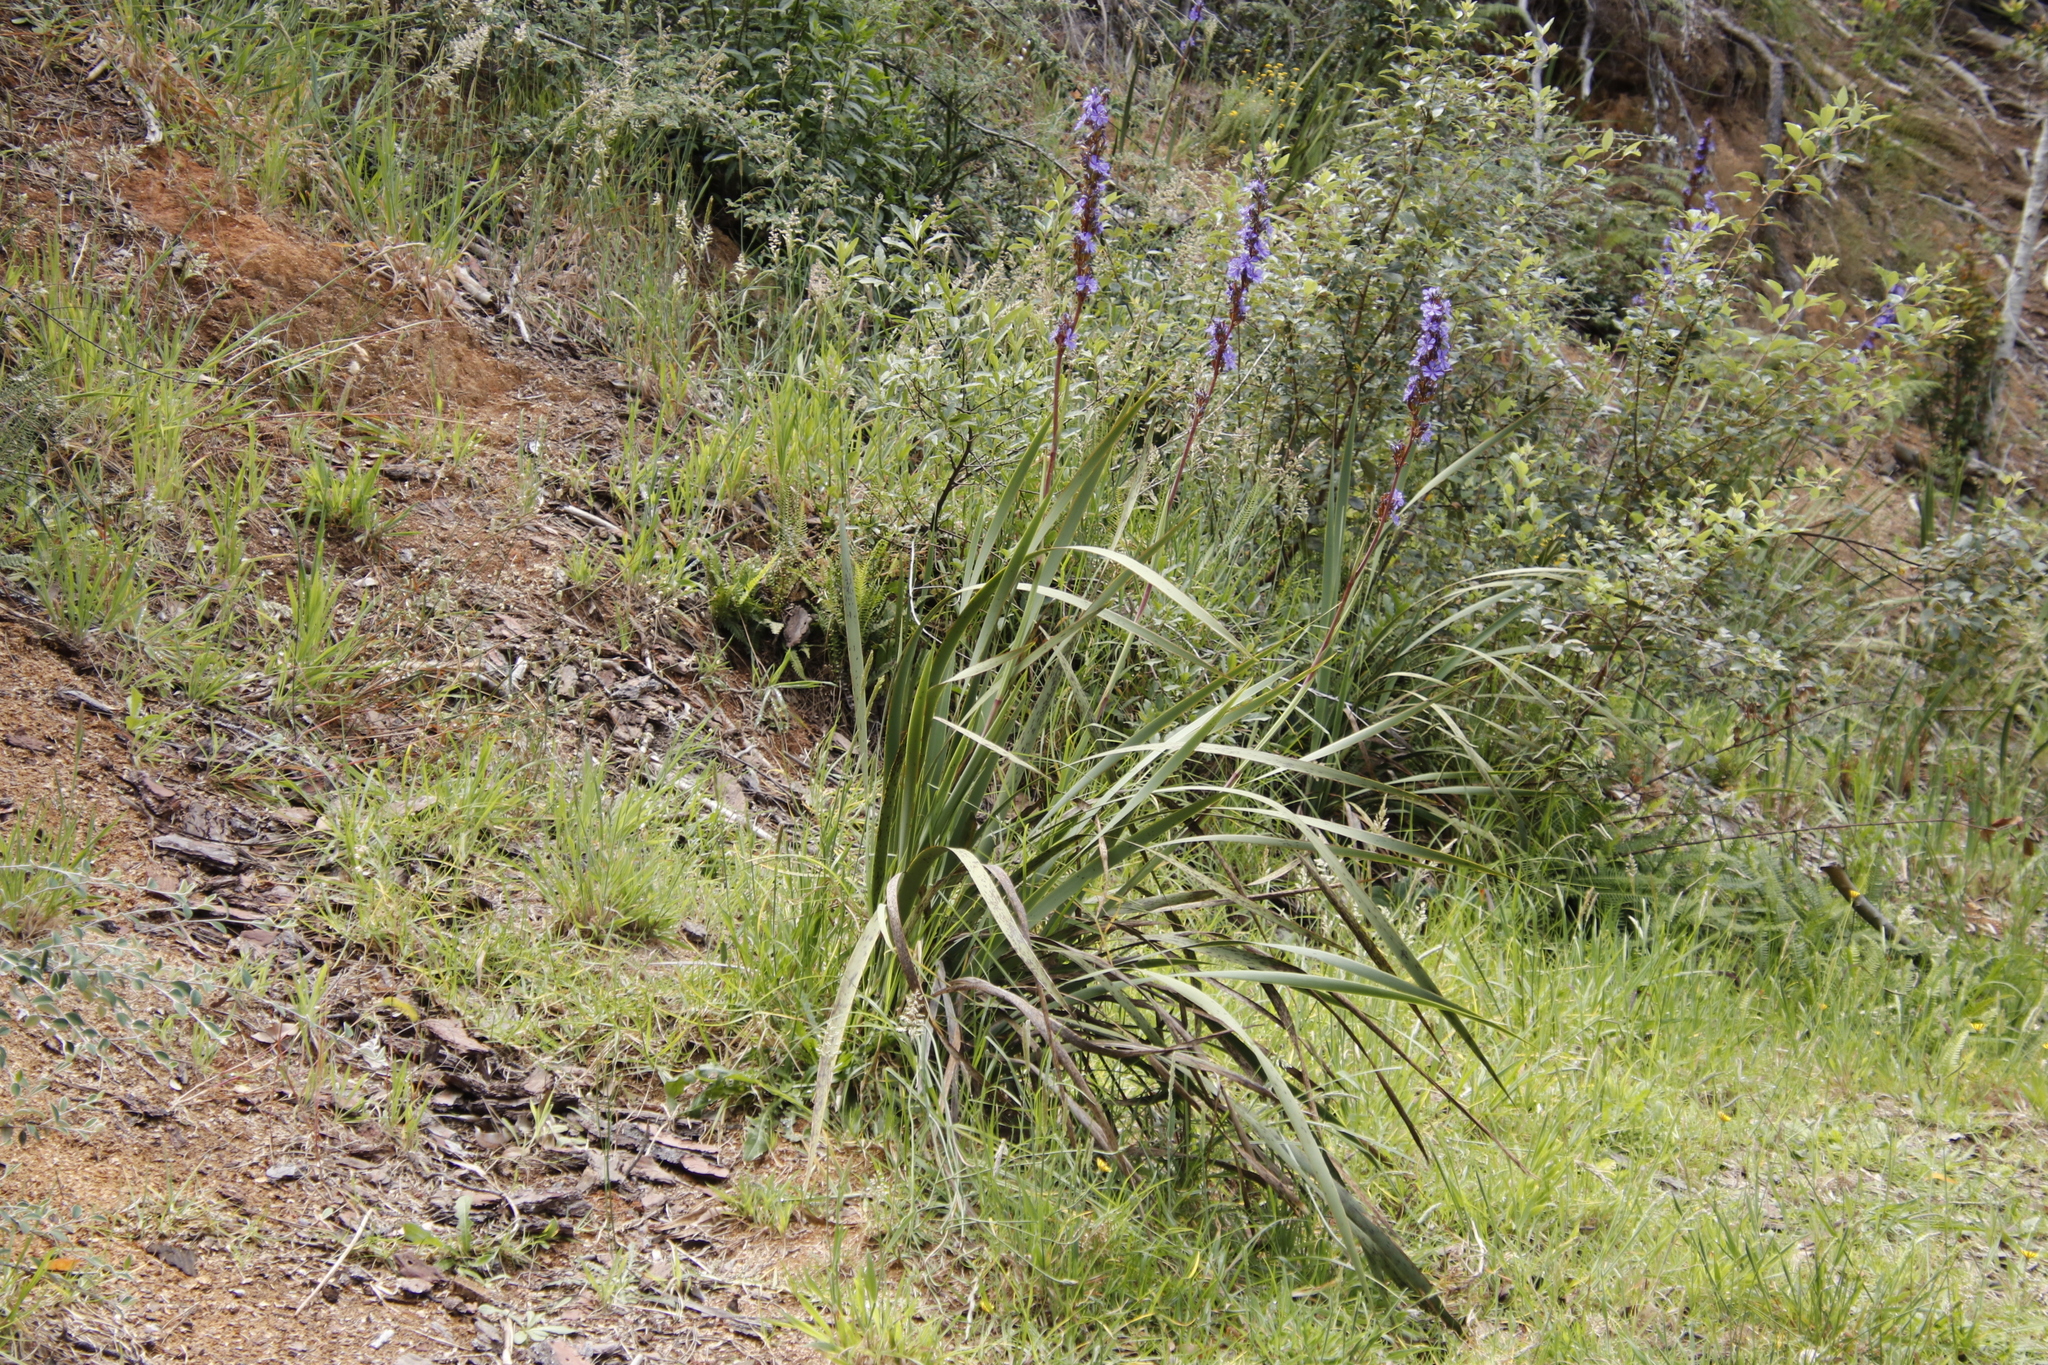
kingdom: Plantae
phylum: Tracheophyta
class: Liliopsida
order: Asparagales
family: Iridaceae
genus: Aristea
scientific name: Aristea capitata
